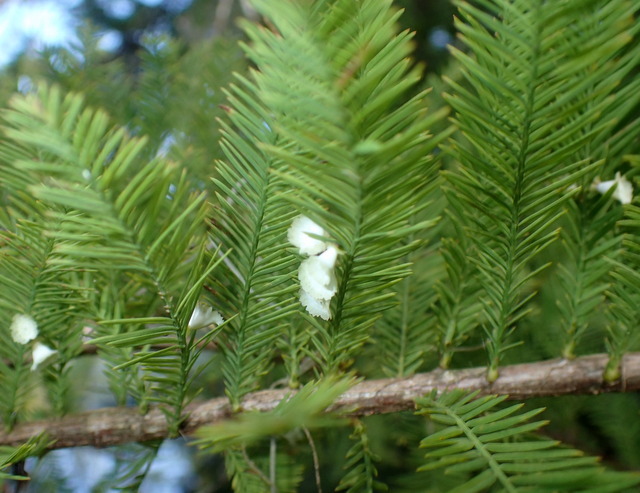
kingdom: Animalia
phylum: Arthropoda
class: Insecta
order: Diptera
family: Cecidomyiidae
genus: Taxodiomyia
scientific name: Taxodiomyia cupressiananassa
